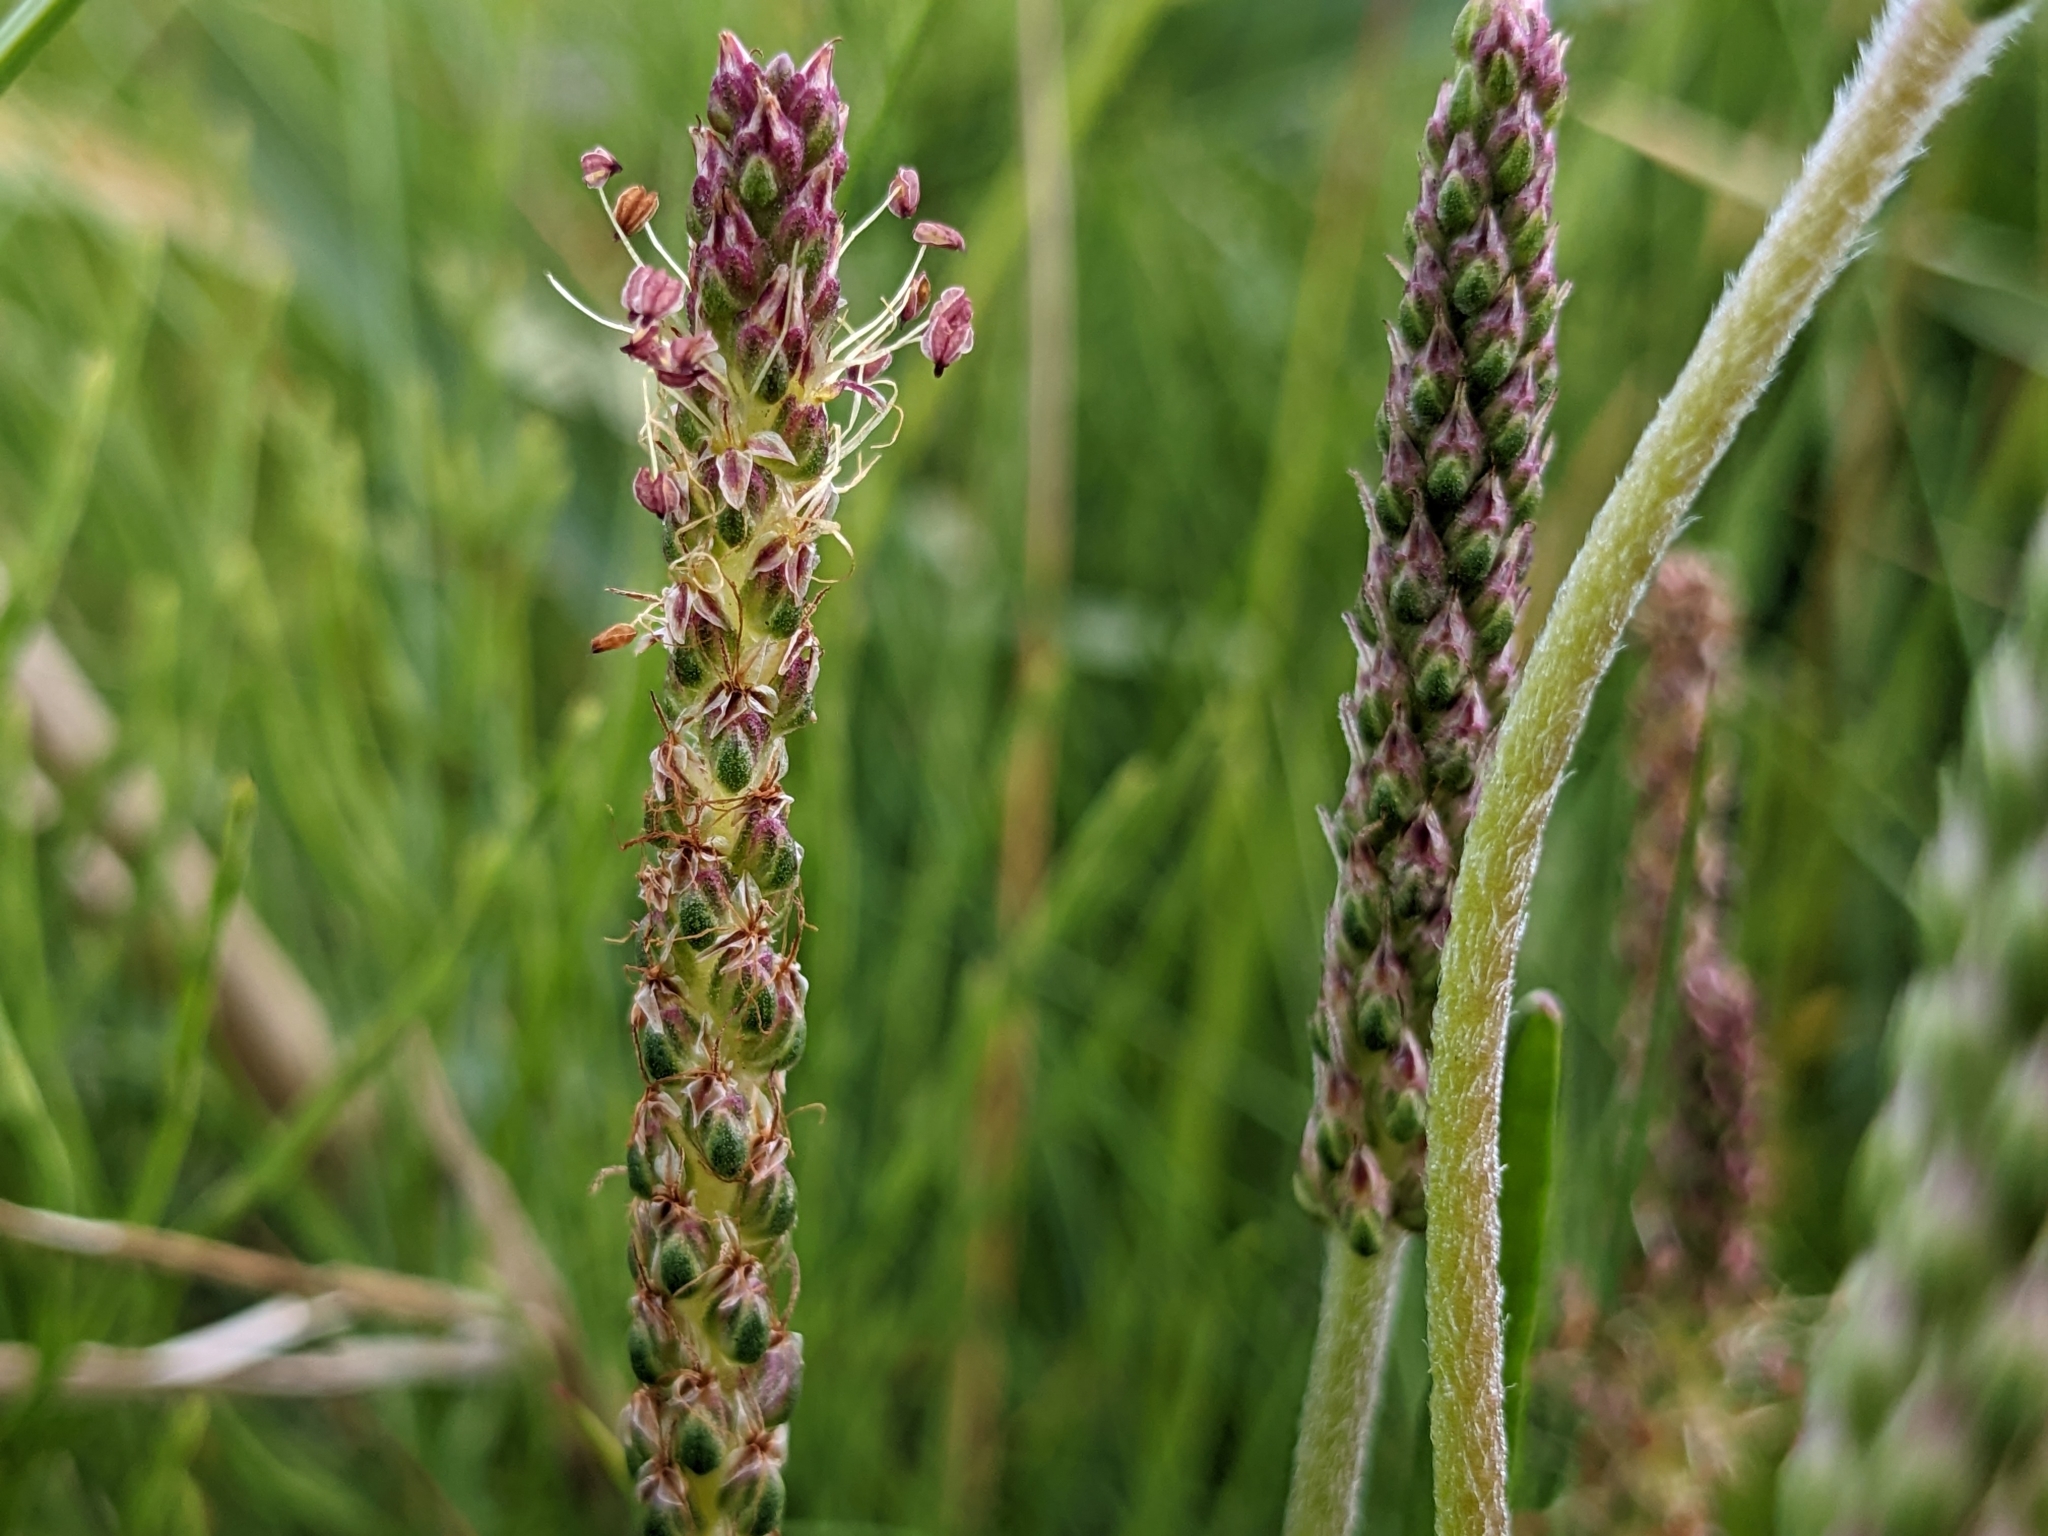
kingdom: Plantae
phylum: Tracheophyta
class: Magnoliopsida
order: Lamiales
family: Plantaginaceae
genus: Plantago
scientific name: Plantago maritima
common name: Sea plantain
